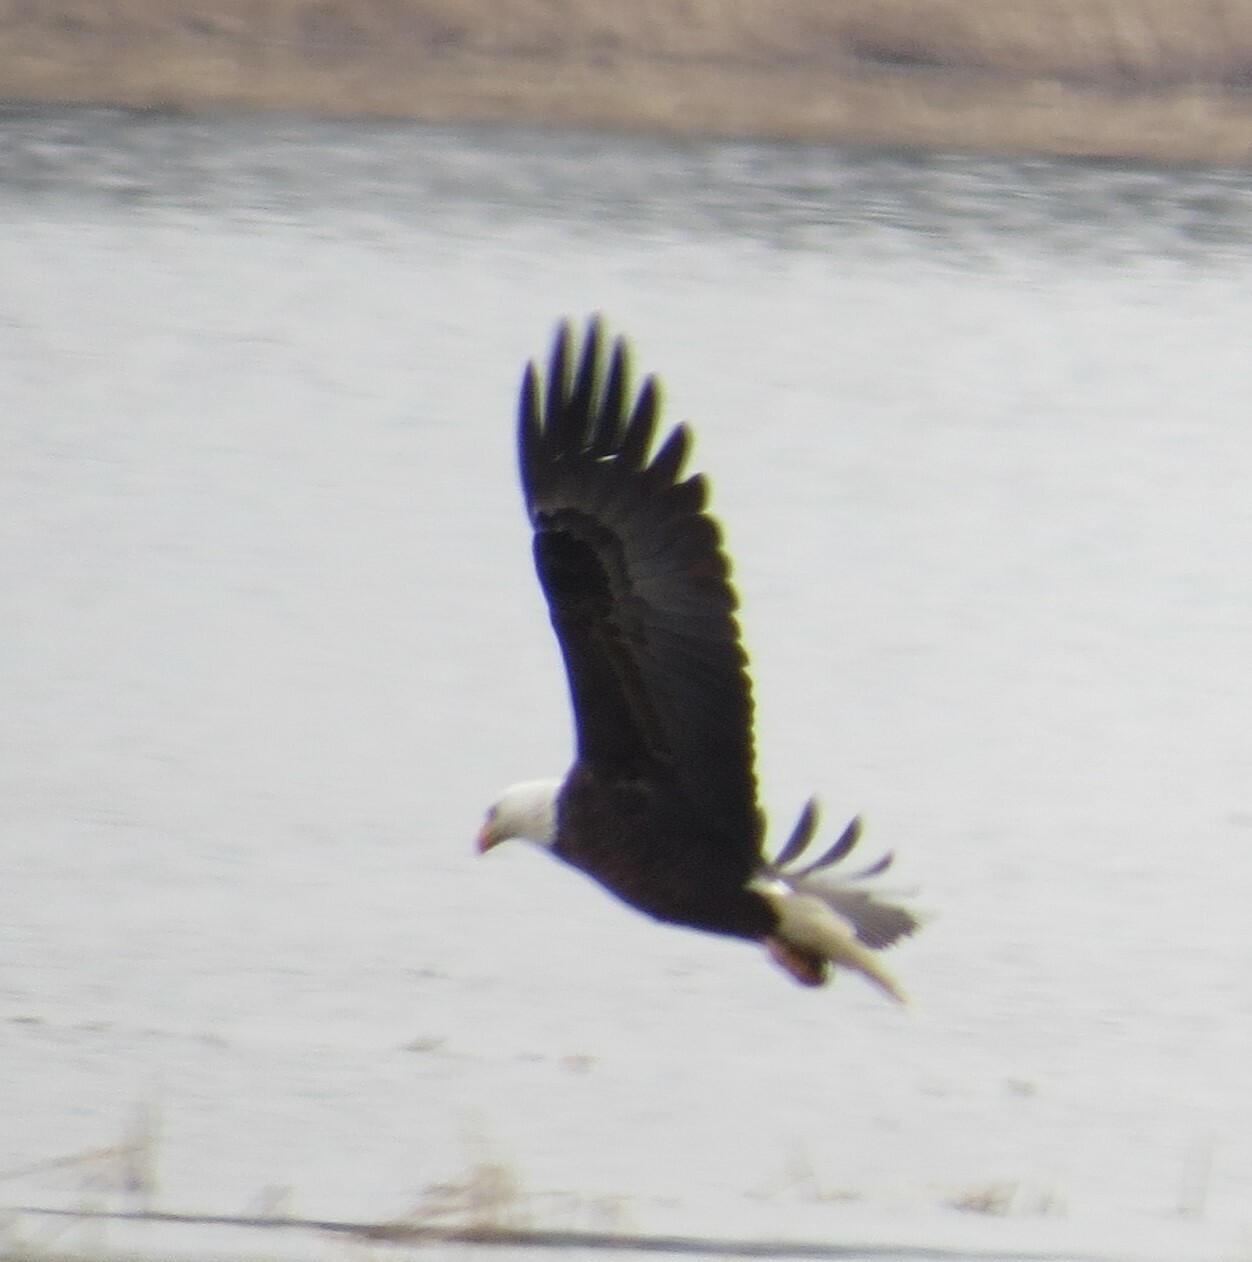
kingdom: Animalia
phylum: Chordata
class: Aves
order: Accipitriformes
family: Accipitridae
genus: Haliaeetus
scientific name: Haliaeetus leucocephalus
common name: Bald eagle
